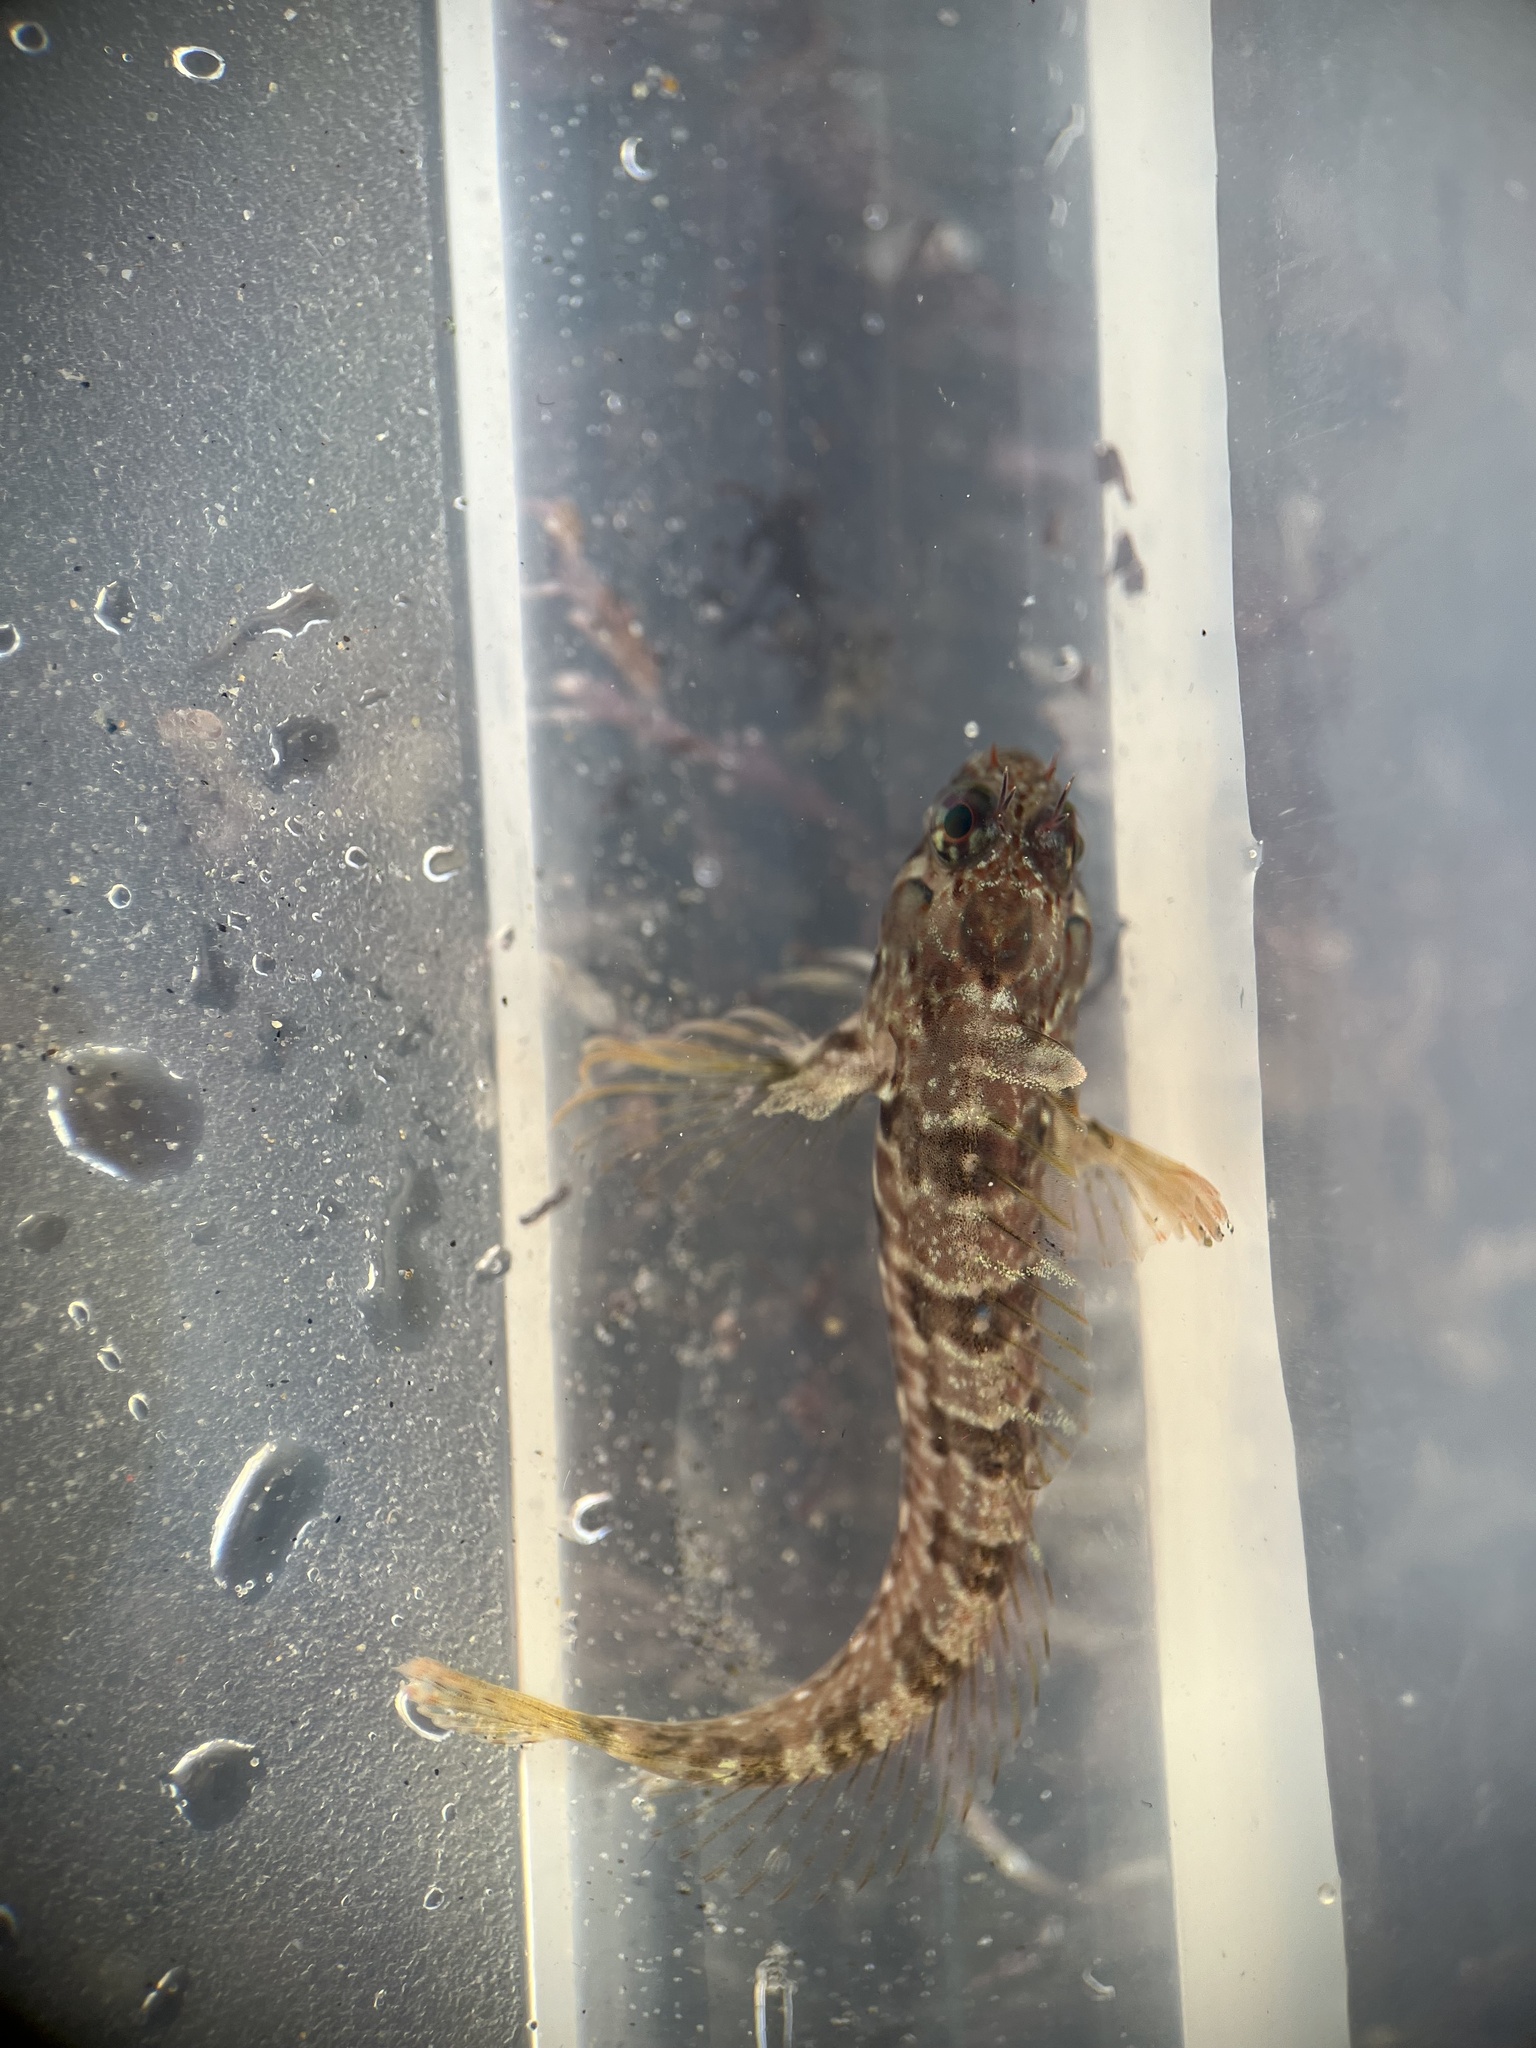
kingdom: Animalia
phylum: Chordata
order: Perciformes
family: Blenniidae
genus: Hypsoblennius
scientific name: Hypsoblennius jenkinsi
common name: Mussel blenny
